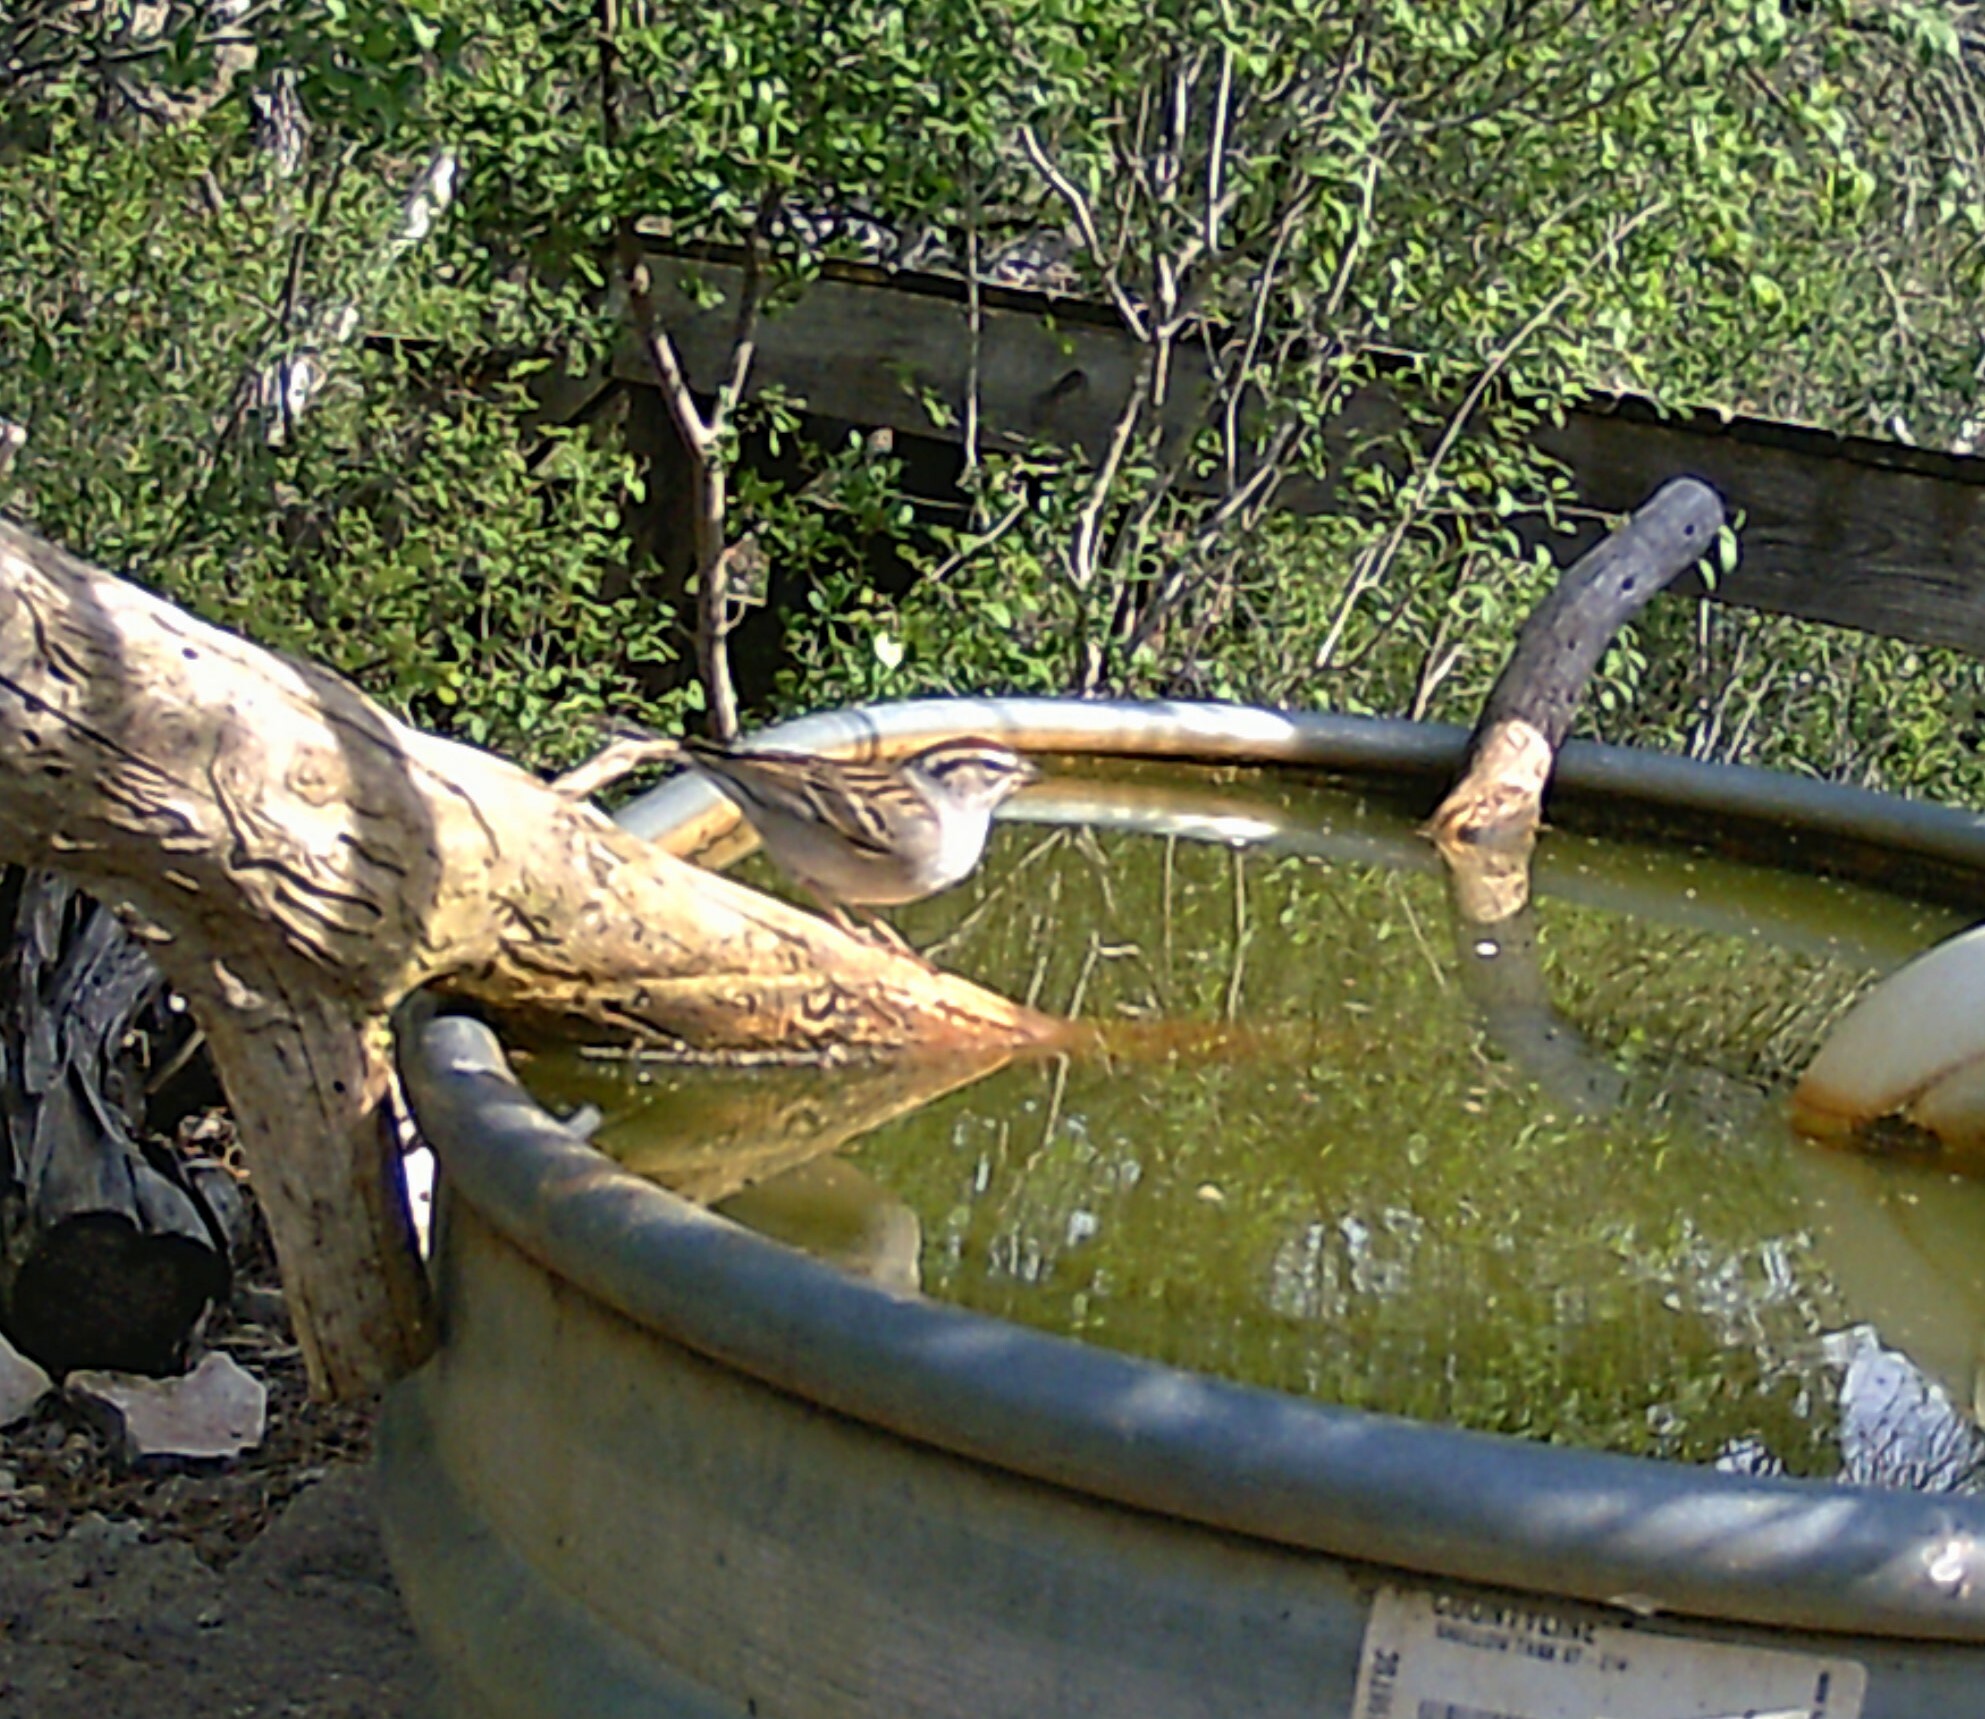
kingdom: Animalia
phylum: Chordata
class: Aves
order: Passeriformes
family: Passerellidae
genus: Spizella
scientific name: Spizella passerina
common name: Chipping sparrow
